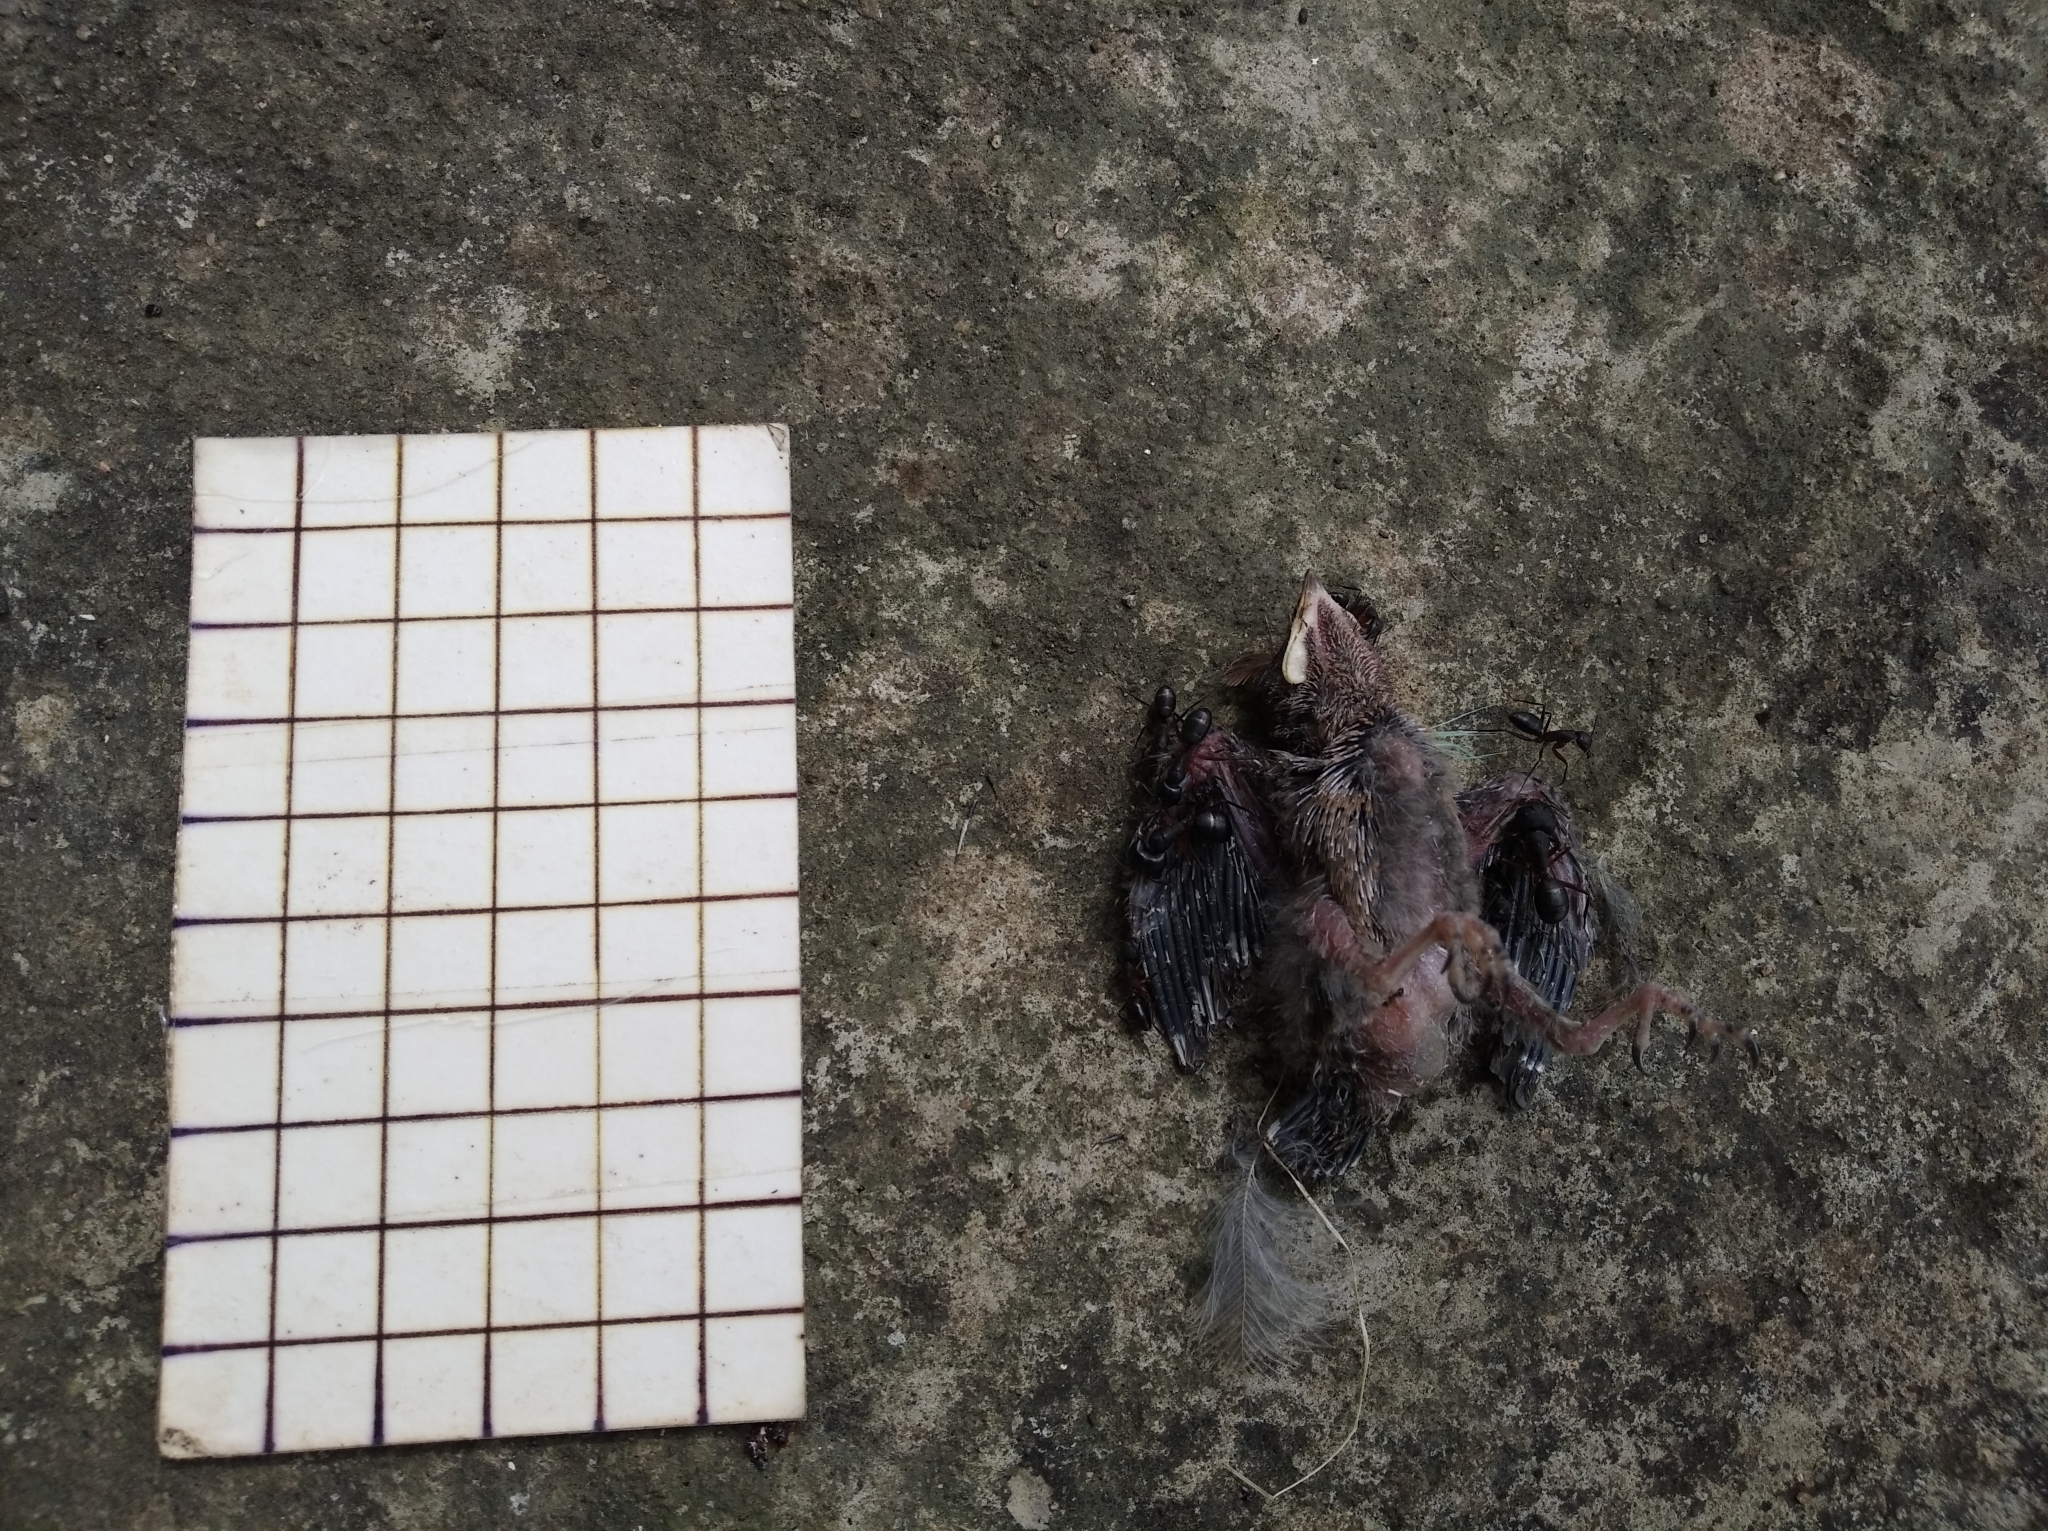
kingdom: Animalia
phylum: Chordata
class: Aves
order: Passeriformes
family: Pycnonotidae
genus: Pycnonotus
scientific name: Pycnonotus cafer
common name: Red-vented bulbul
